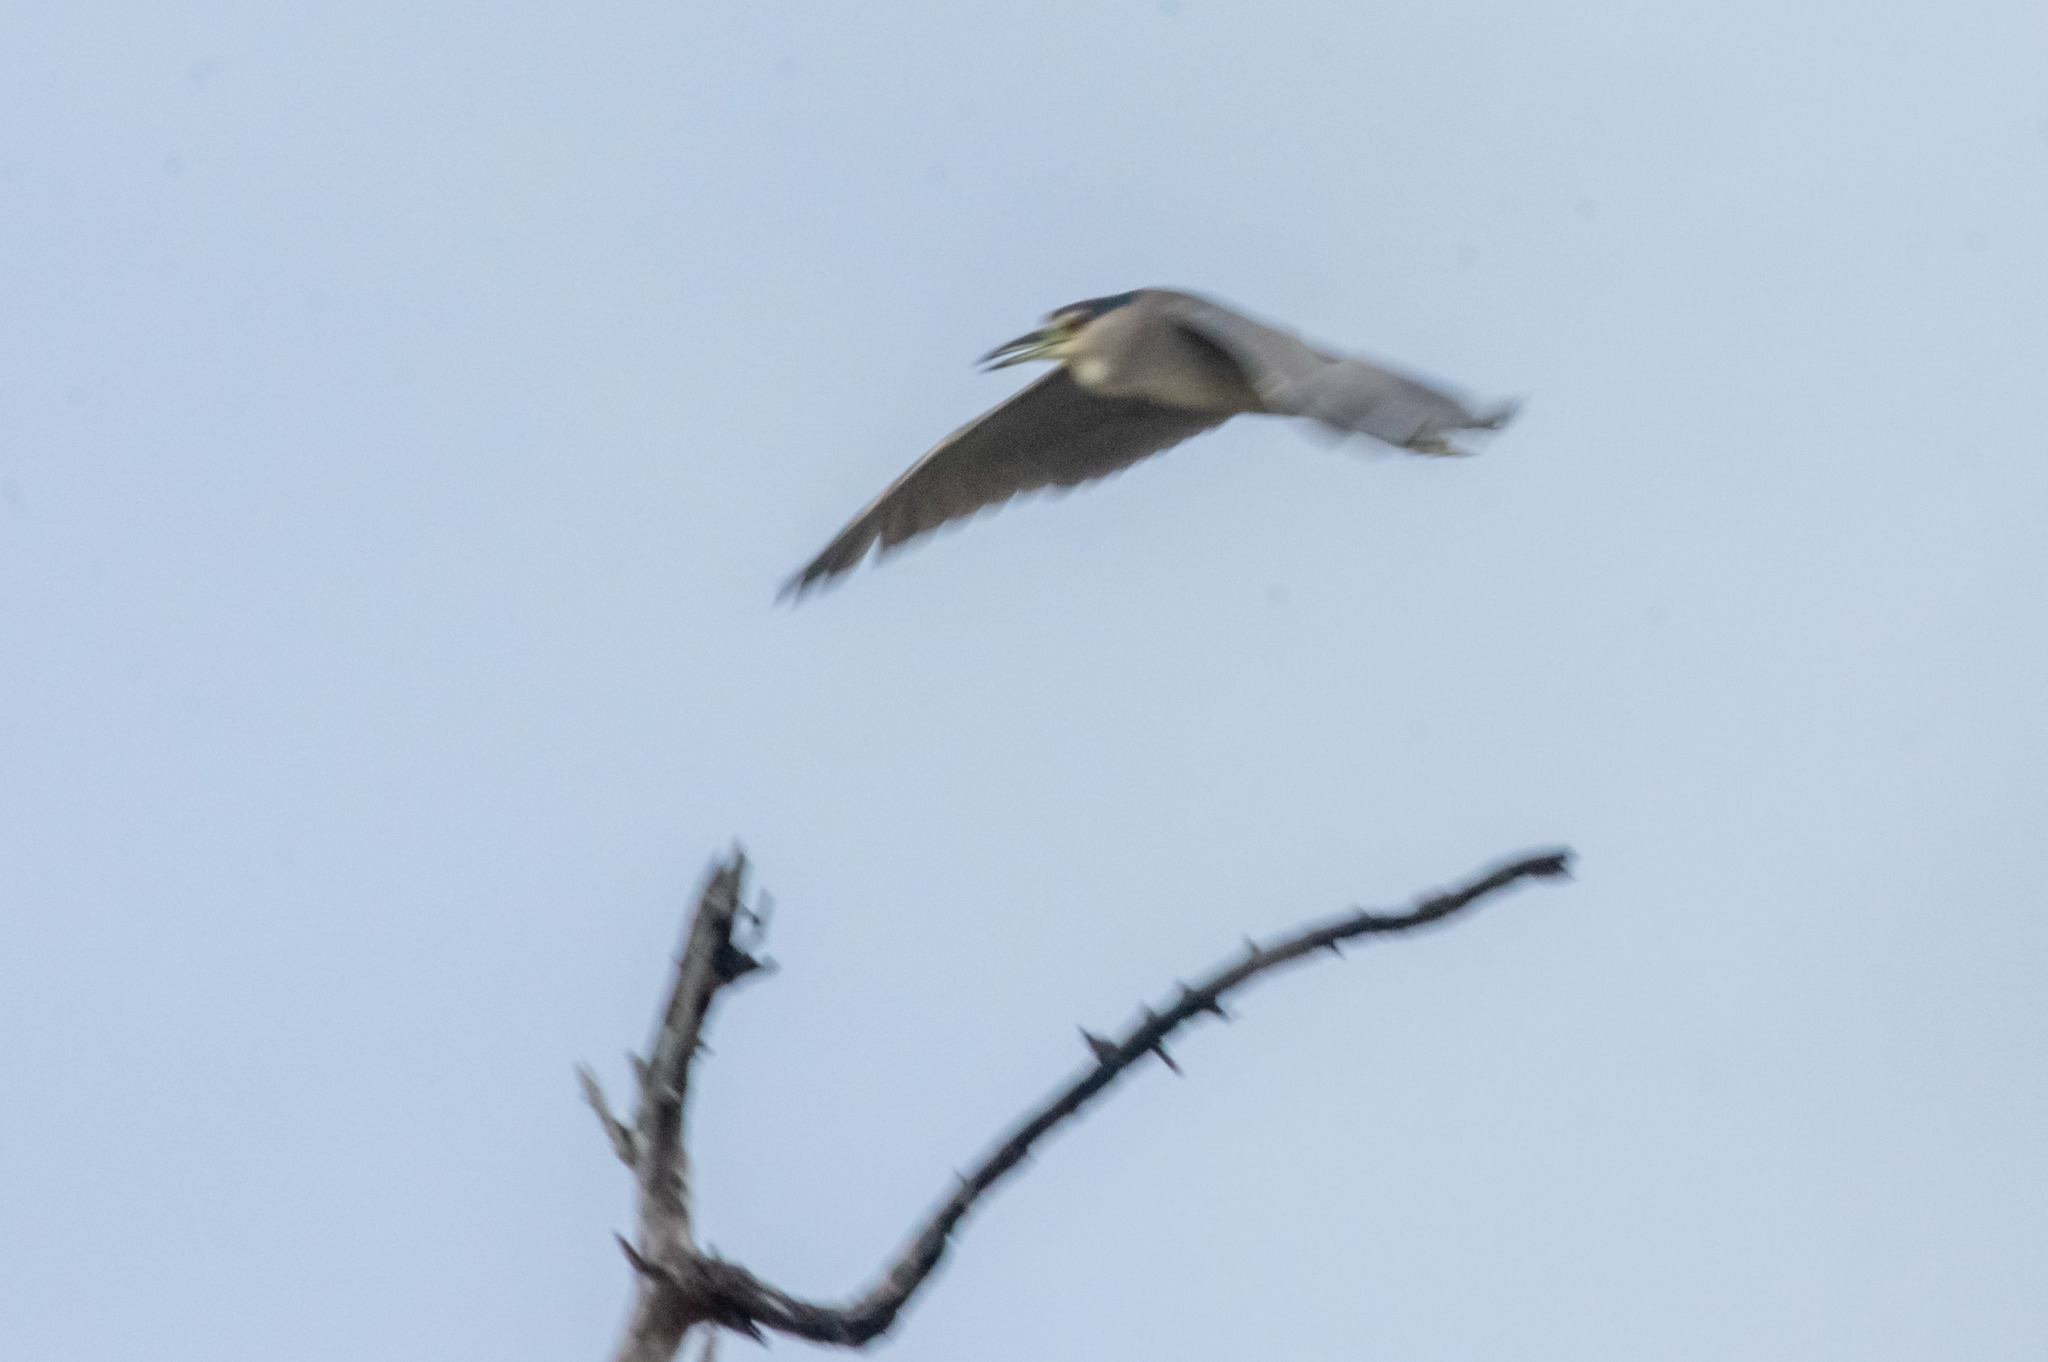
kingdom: Animalia
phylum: Chordata
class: Aves
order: Pelecaniformes
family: Ardeidae
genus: Nycticorax
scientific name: Nycticorax nycticorax
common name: Black-crowned night heron
